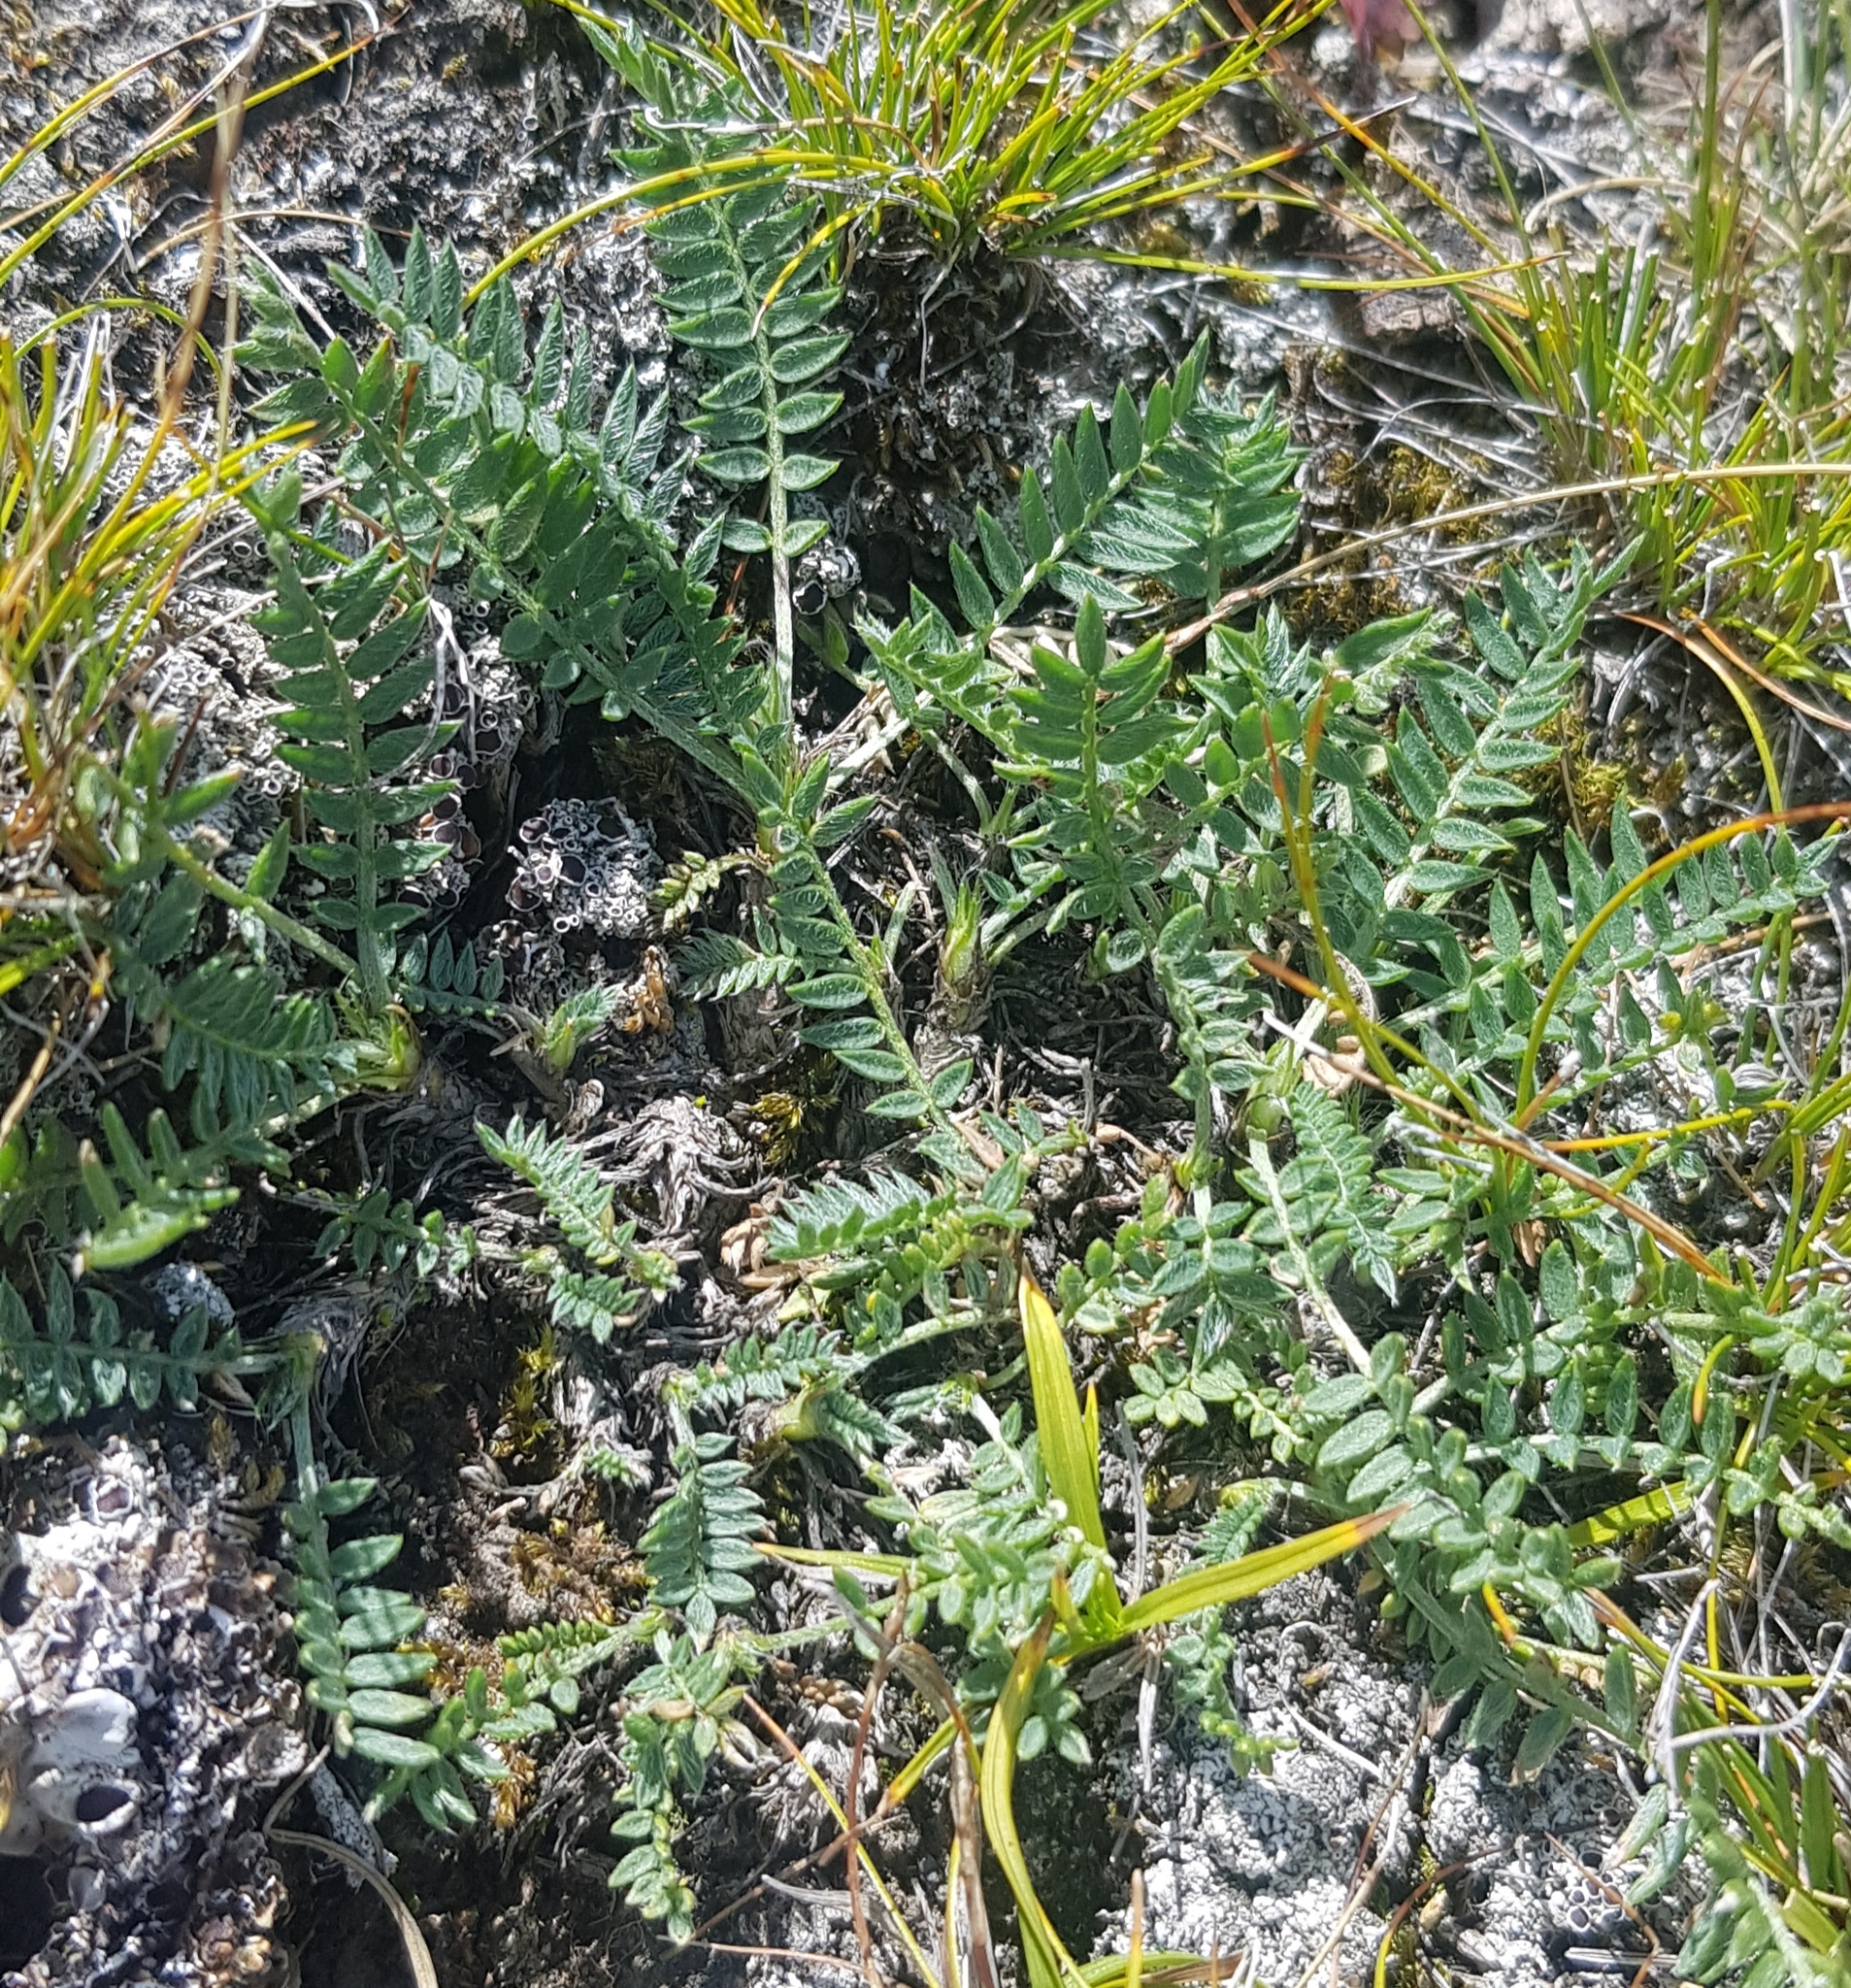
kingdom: Plantae
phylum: Tracheophyta
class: Magnoliopsida
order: Fabales
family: Fabaceae
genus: Oxytropis
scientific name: Oxytropis coerulea
